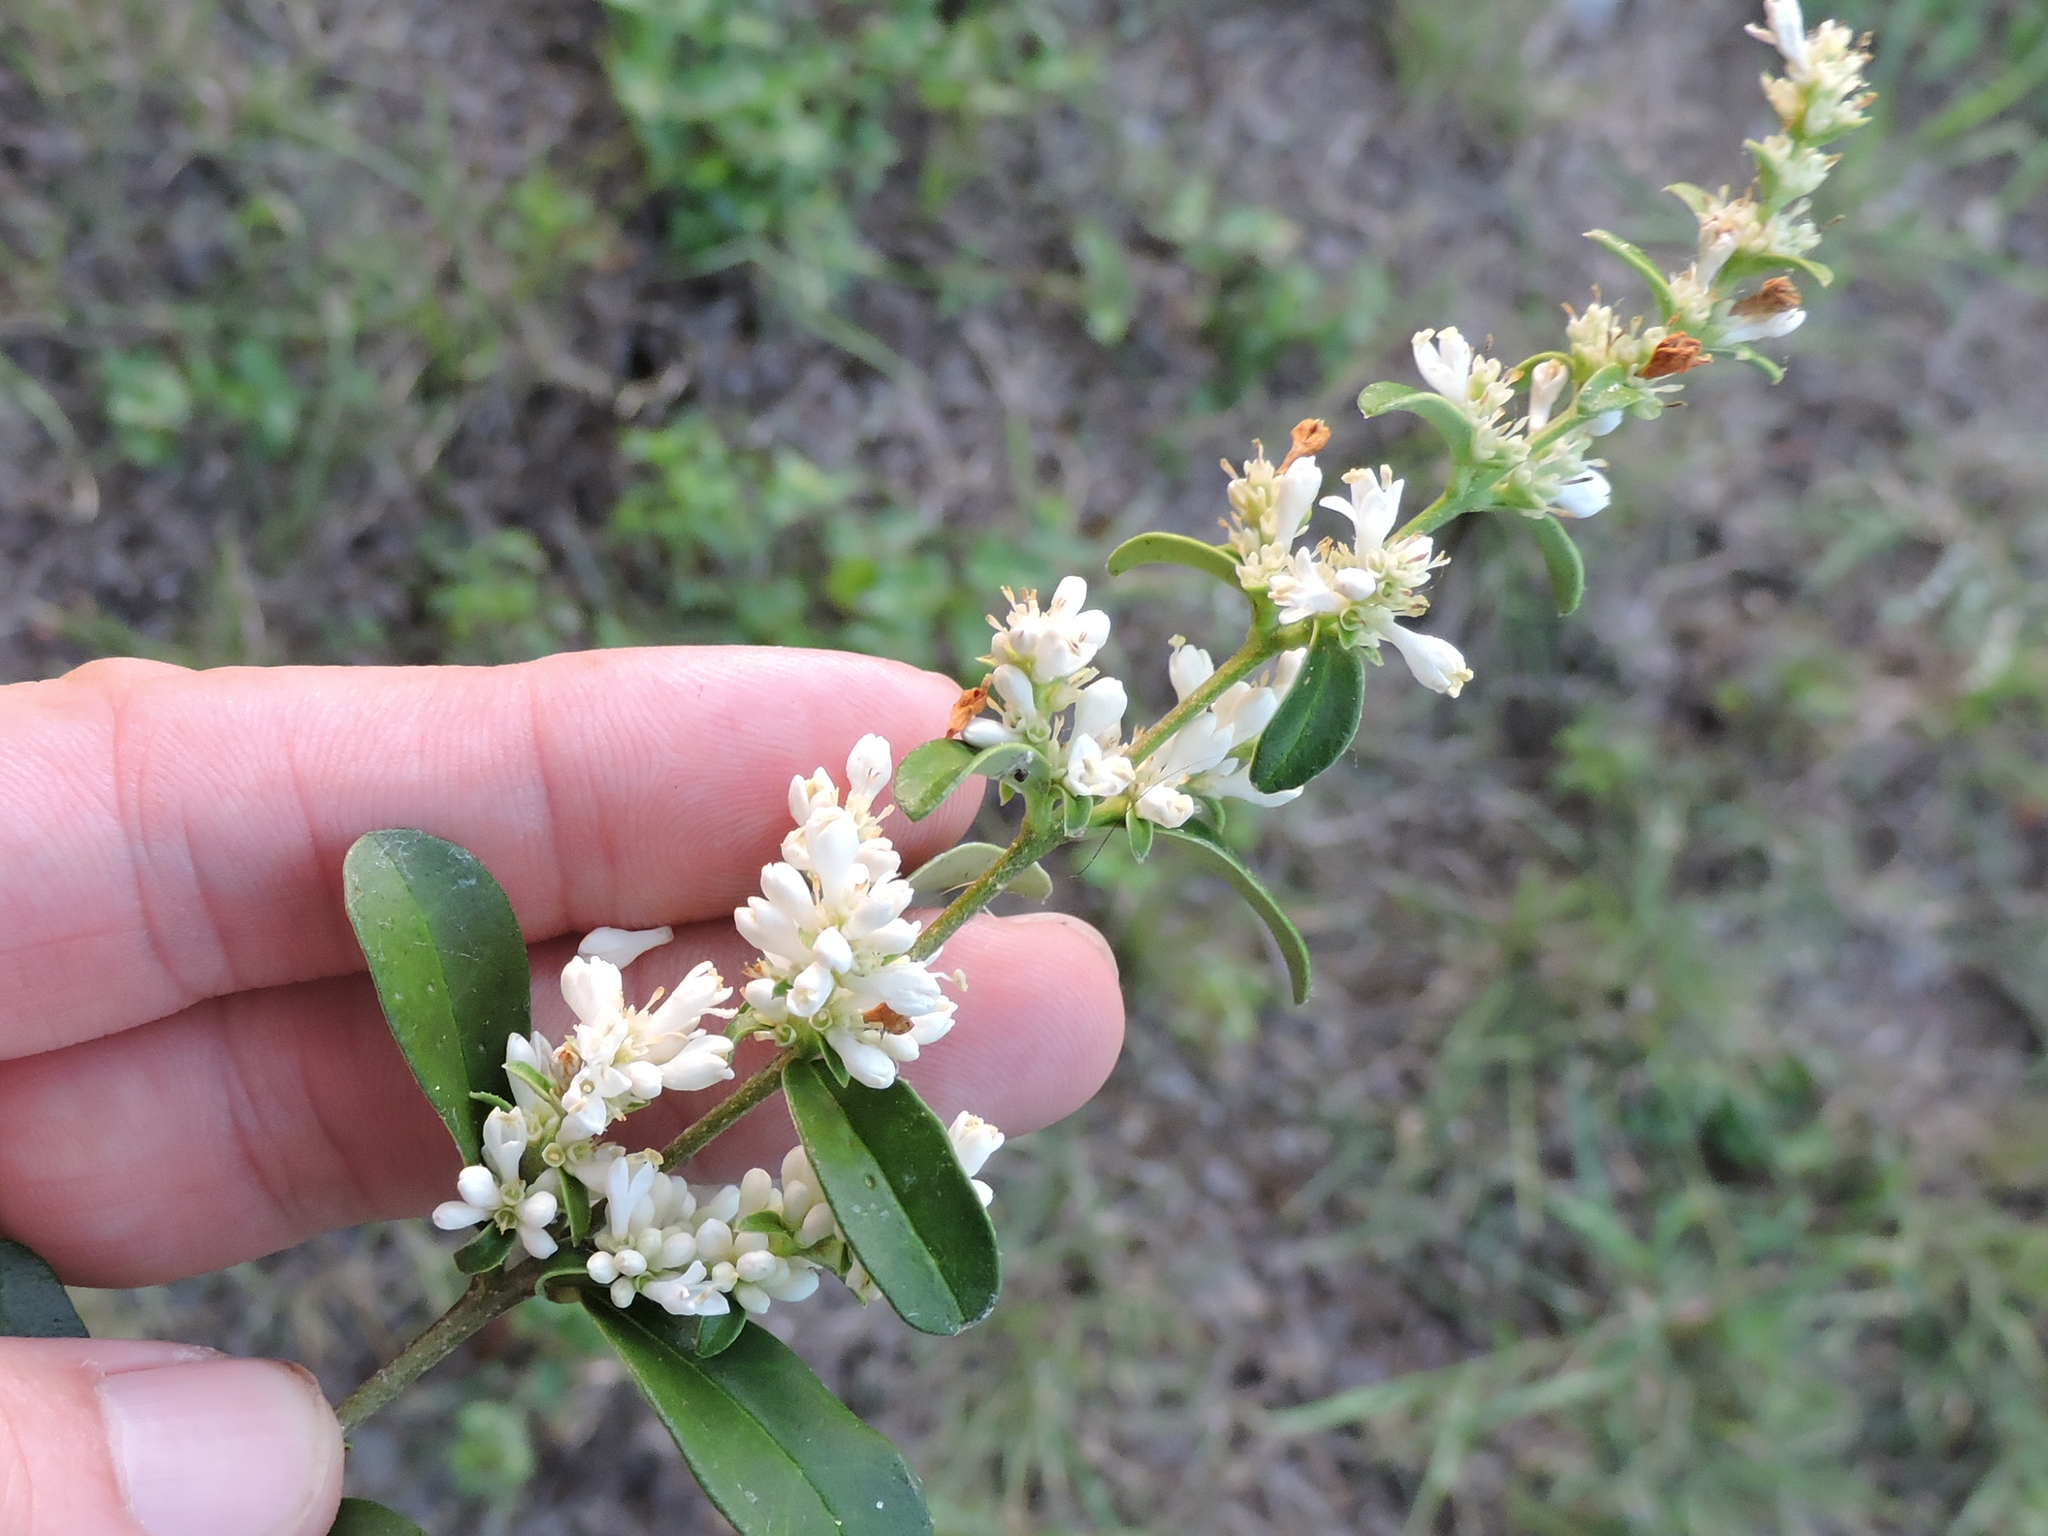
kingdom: Plantae
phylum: Tracheophyta
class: Magnoliopsida
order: Lamiales
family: Oleaceae
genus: Ligustrum
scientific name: Ligustrum quihoui
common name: Waxyleaf privet
